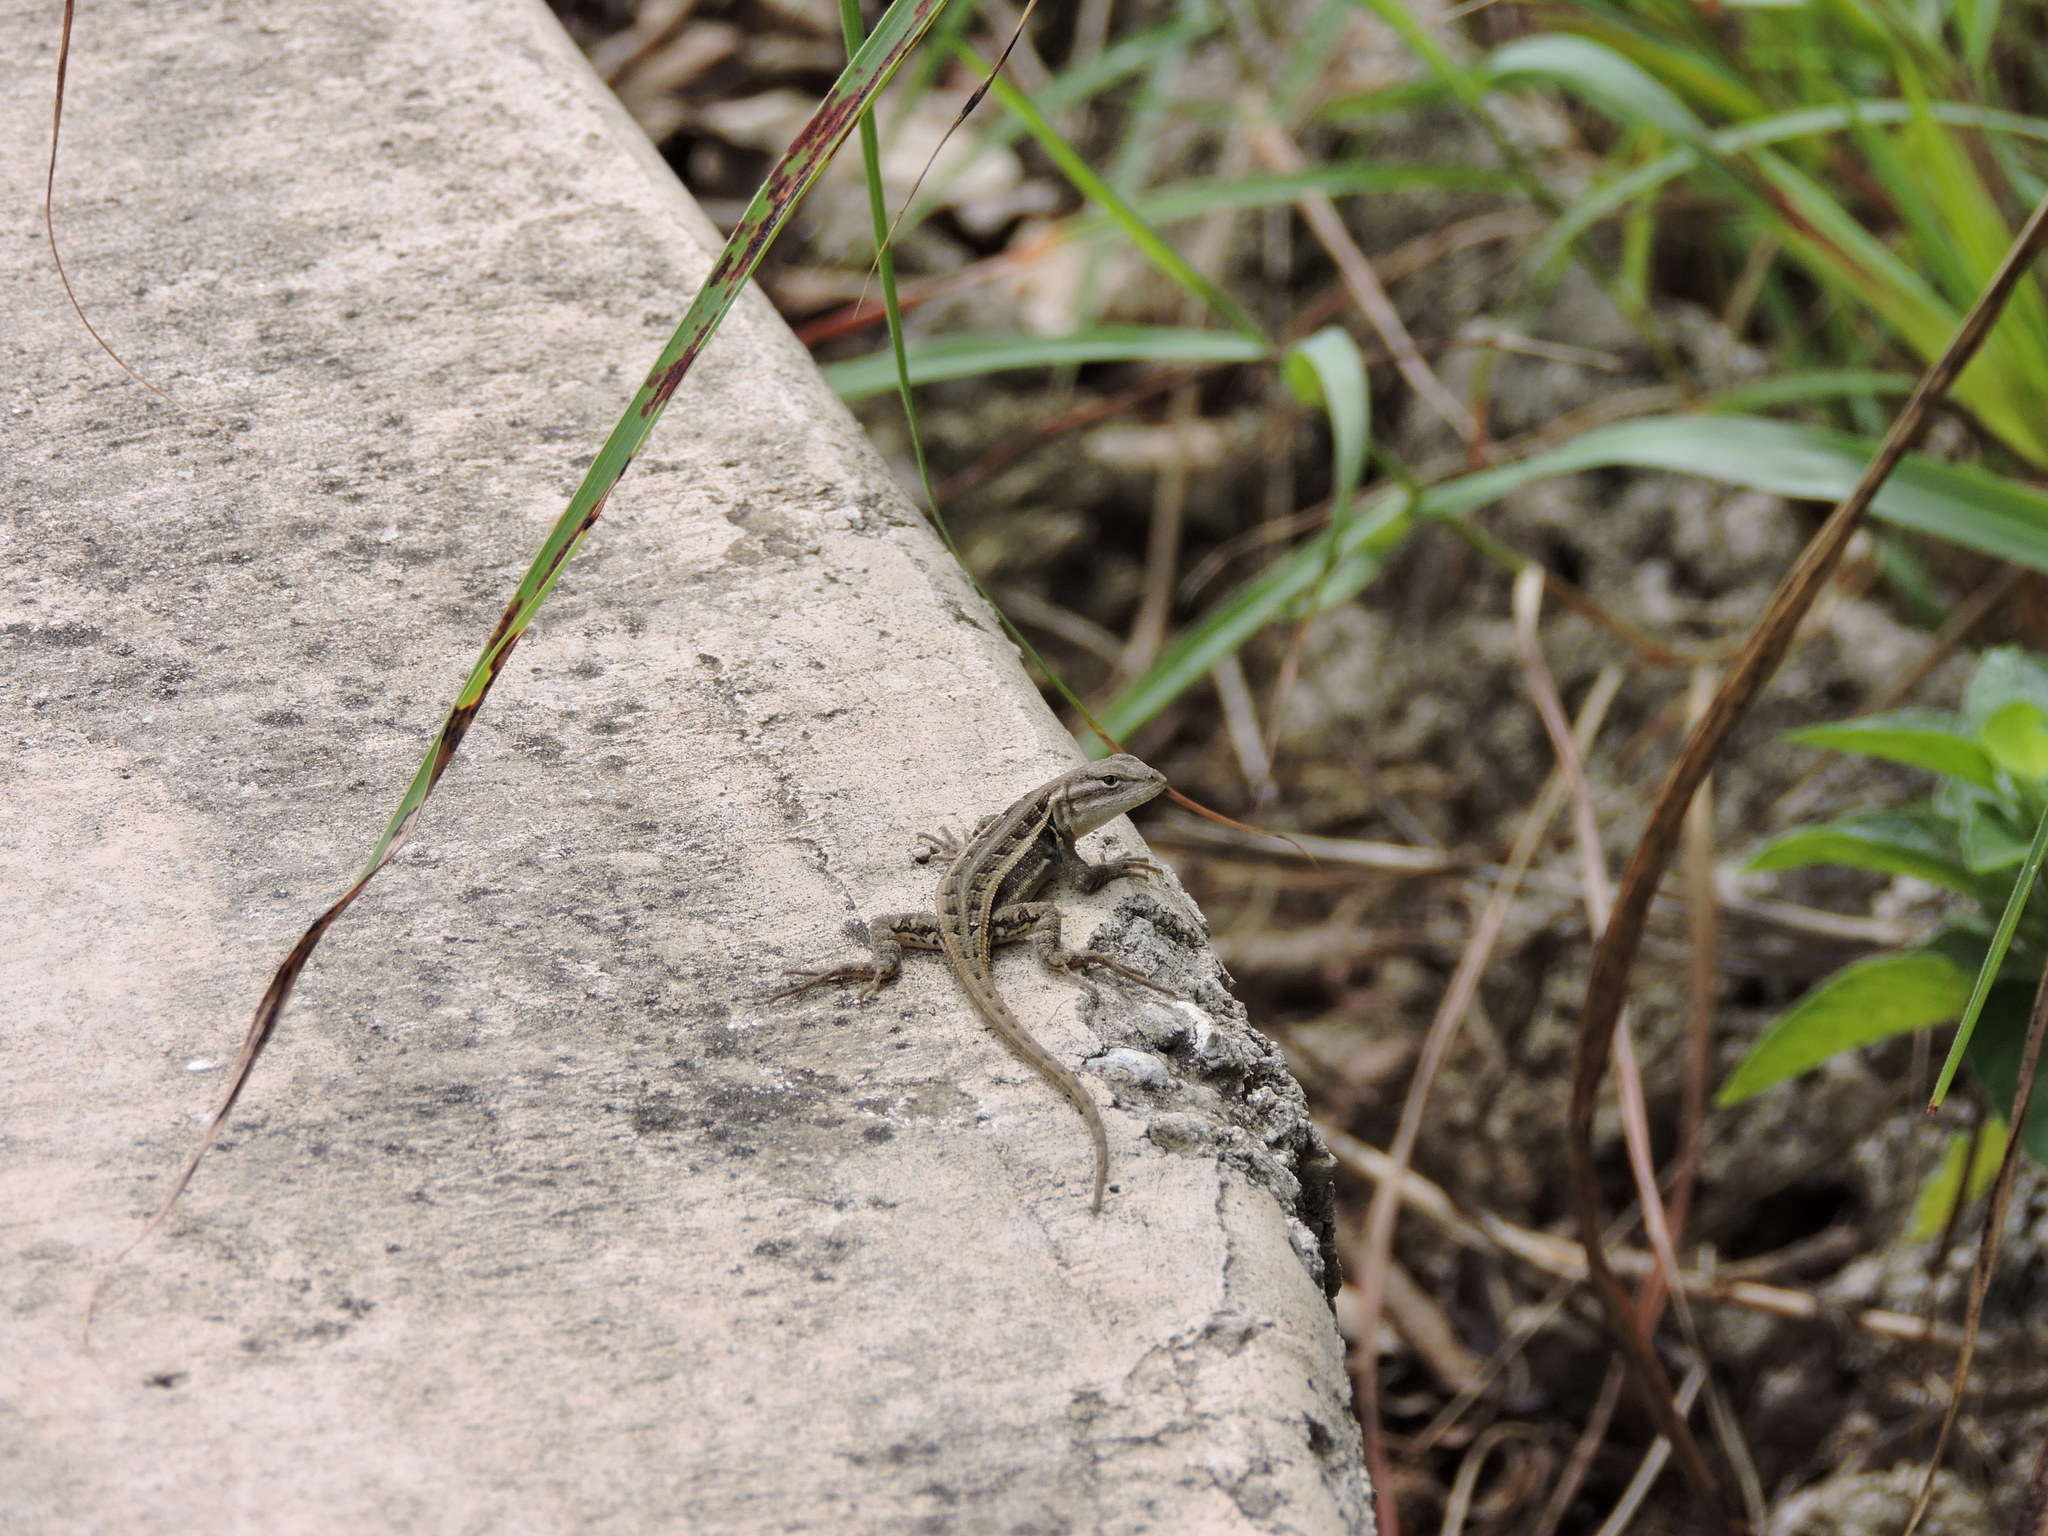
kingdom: Animalia
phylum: Chordata
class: Squamata
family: Phrynosomatidae
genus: Sceloporus
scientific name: Sceloporus variabilis
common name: Rosebelly lizard
